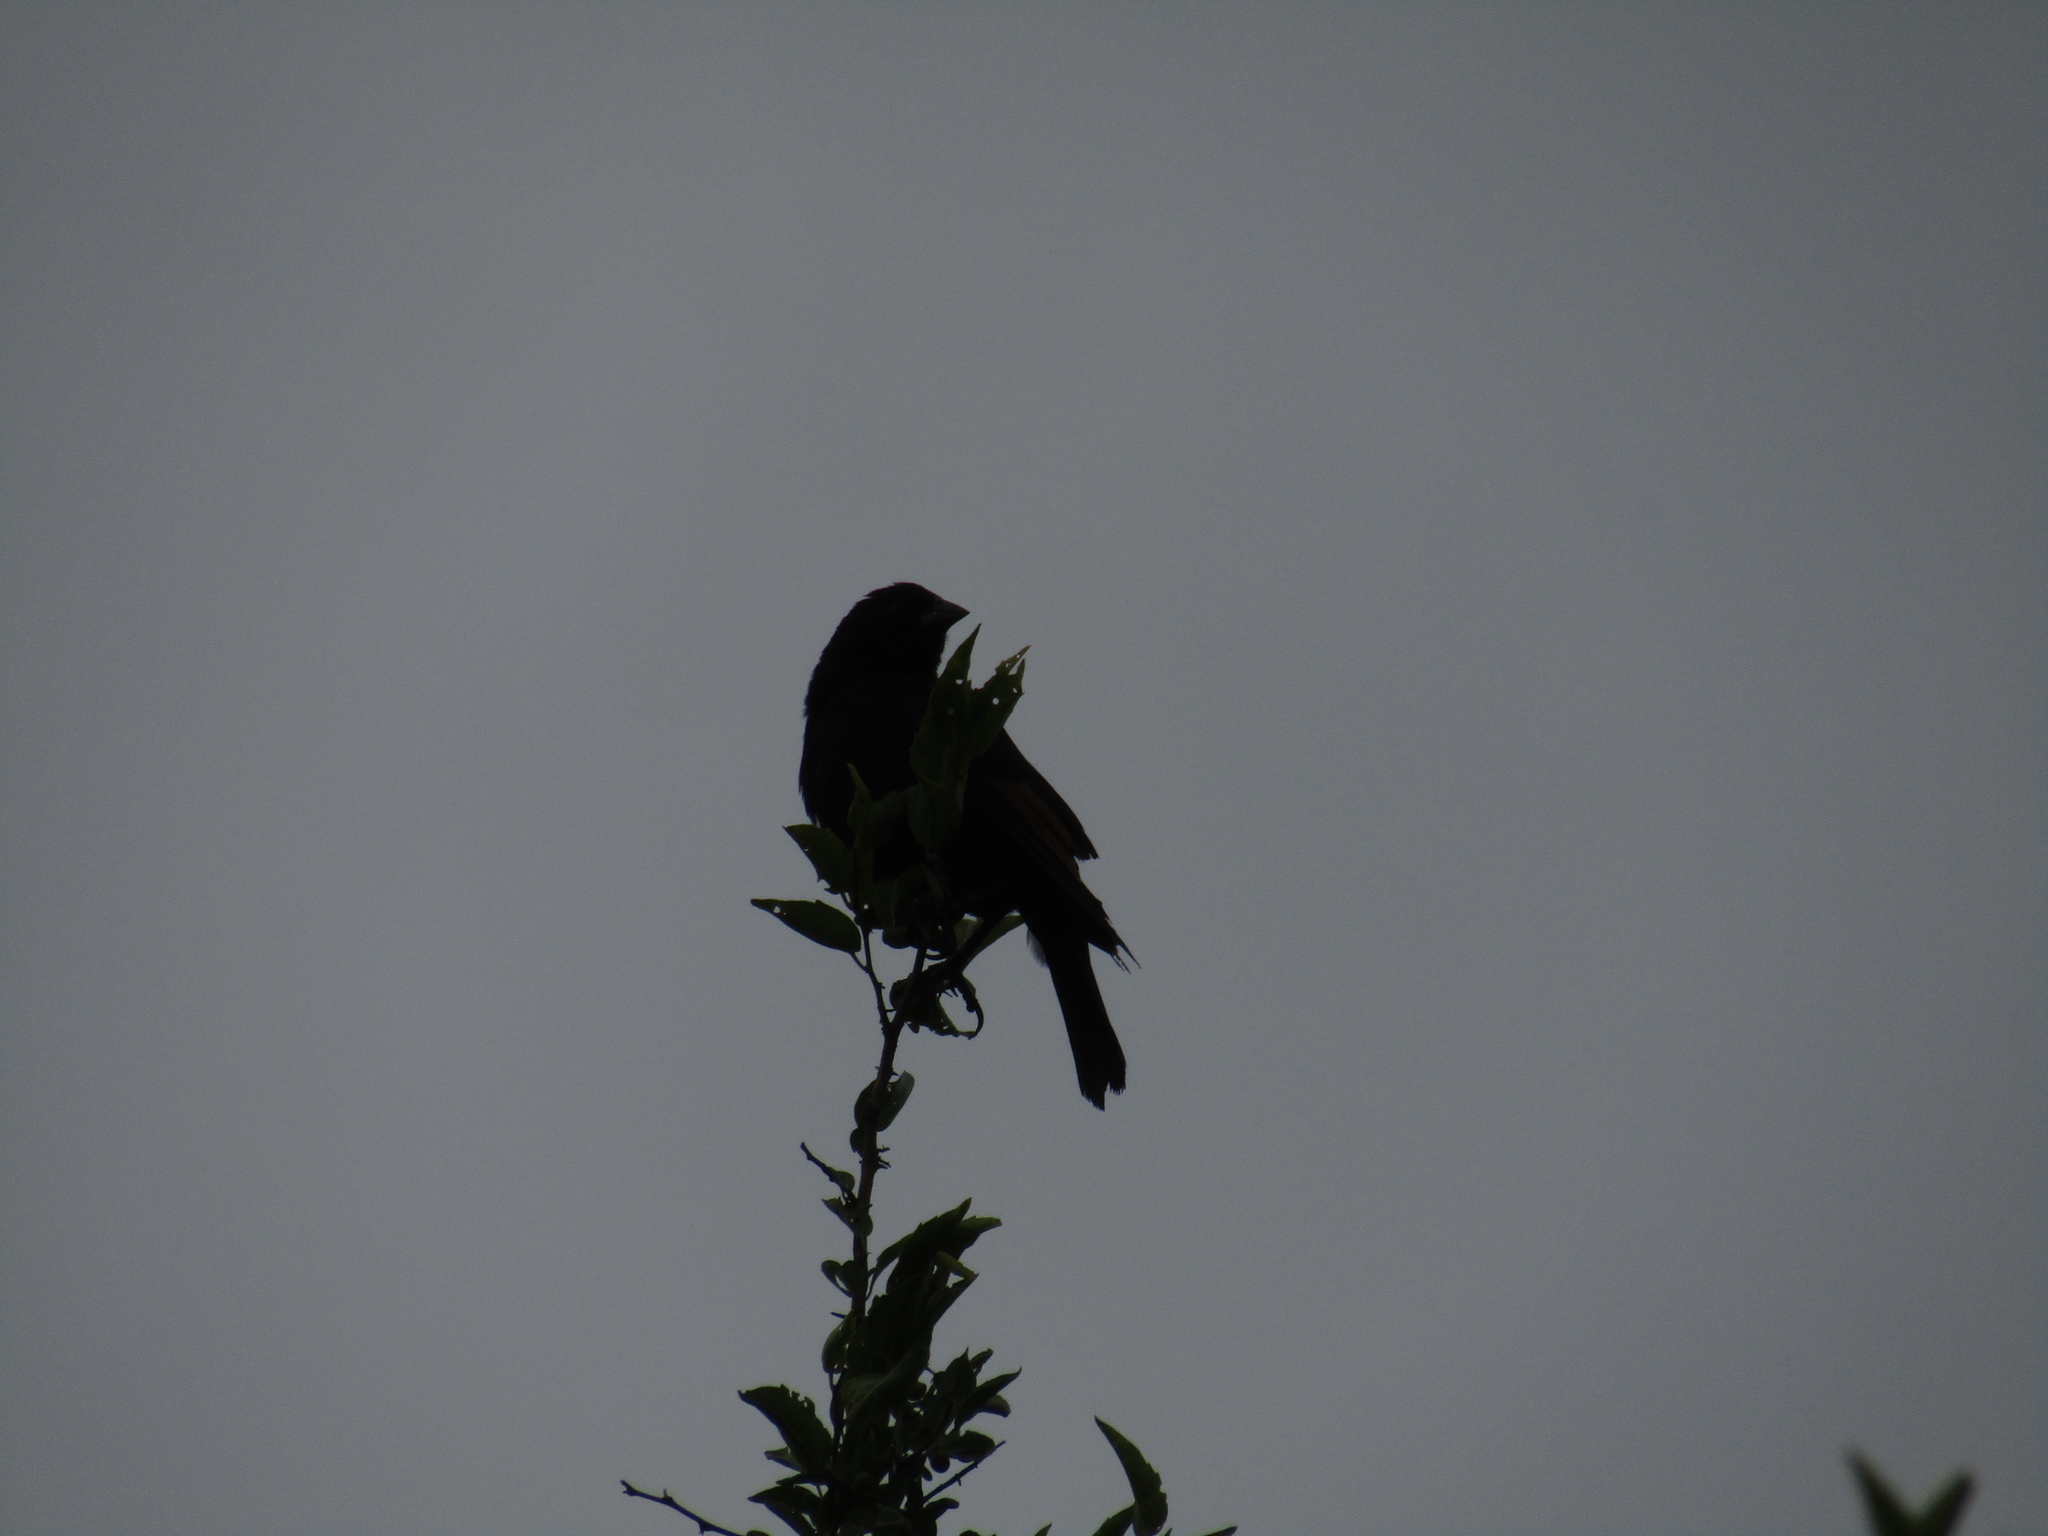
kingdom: Animalia
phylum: Chordata
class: Aves
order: Passeriformes
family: Icteridae
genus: Molothrus
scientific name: Molothrus rufoaxillaris
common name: Screaming cowbird
